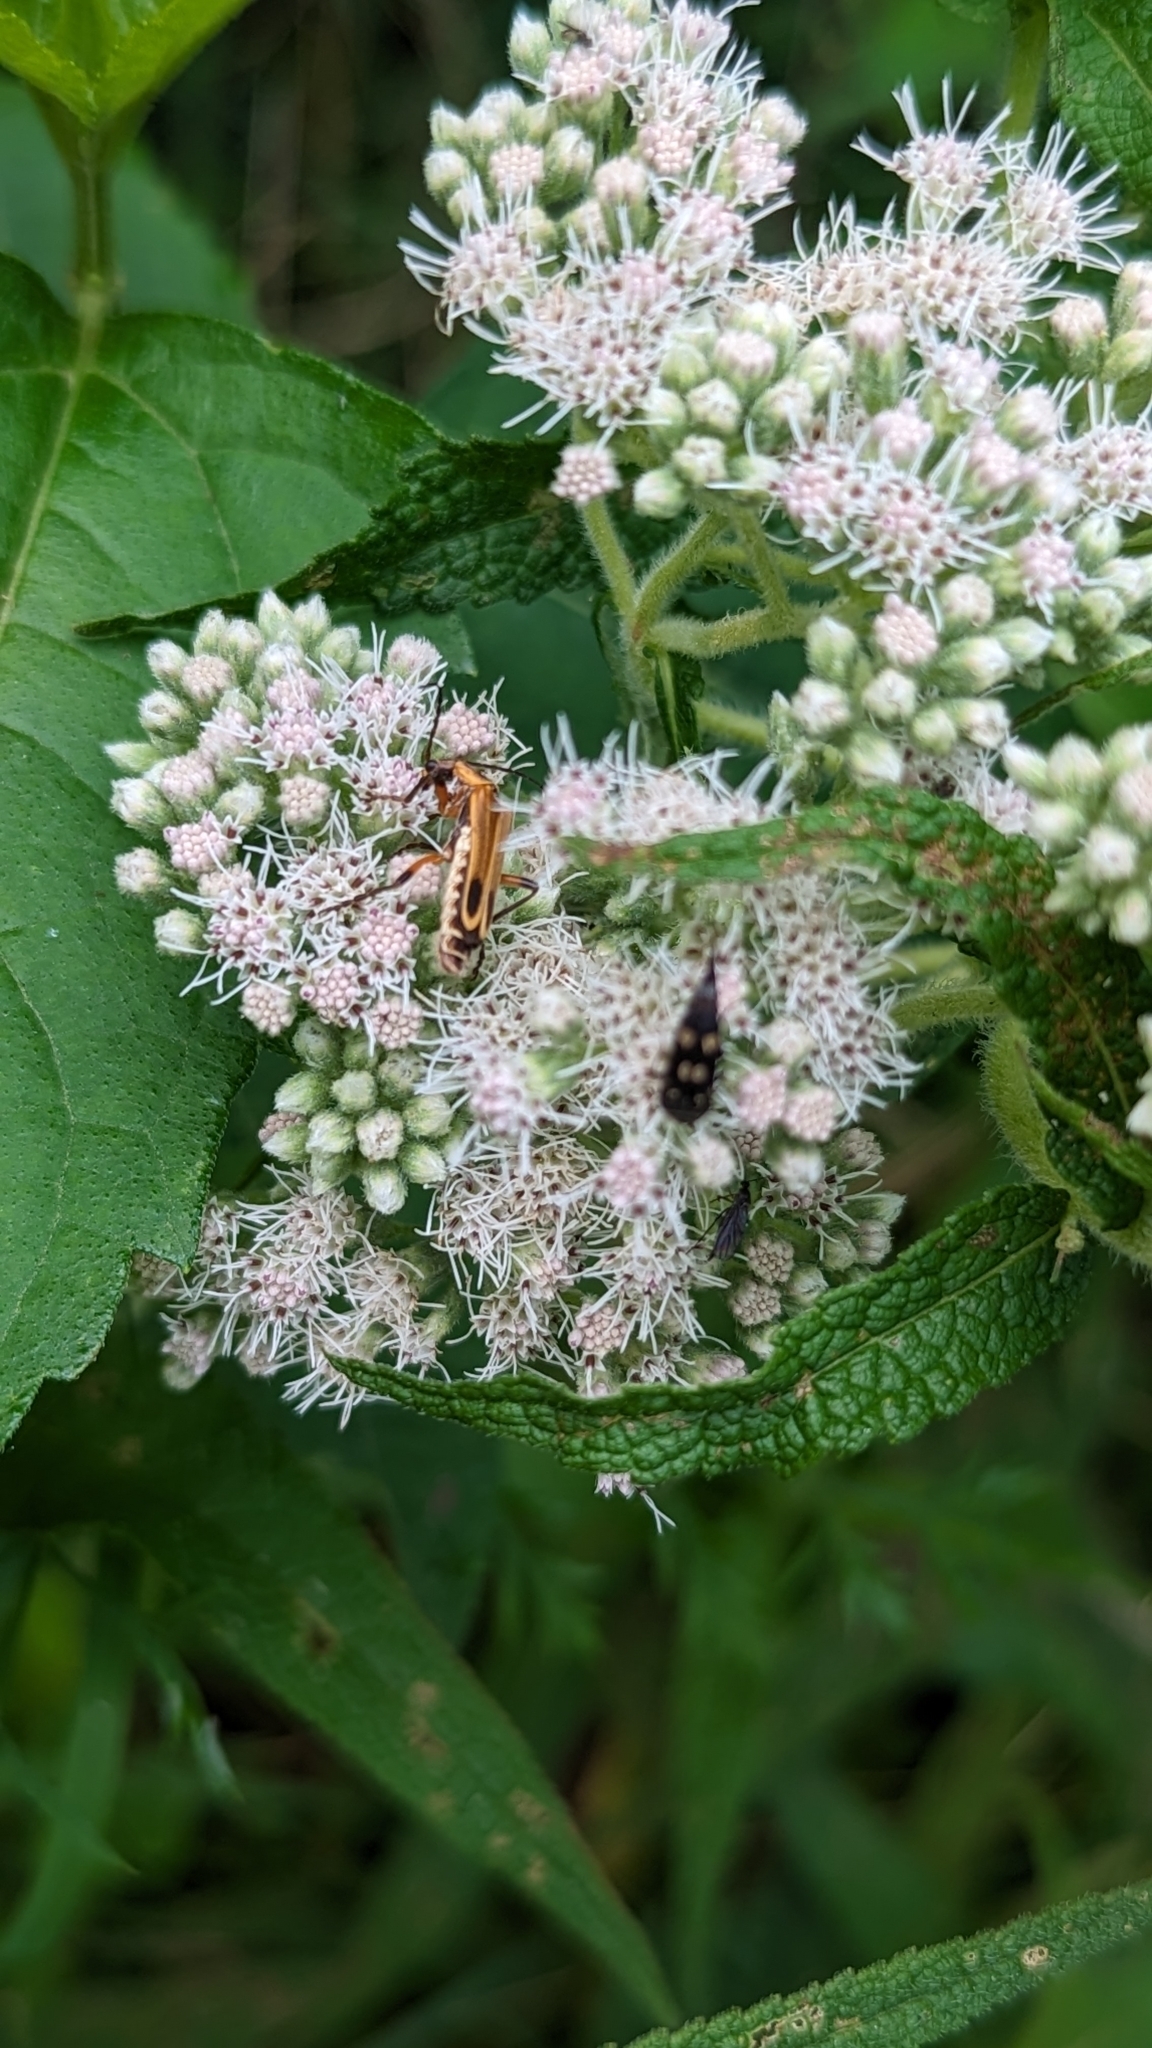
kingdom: Animalia
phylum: Arthropoda
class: Insecta
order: Coleoptera
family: Mordellidae
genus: Hoshihananomia
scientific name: Hoshihananomia octopunctata
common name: Eight-spotted tumbling flower beetle
